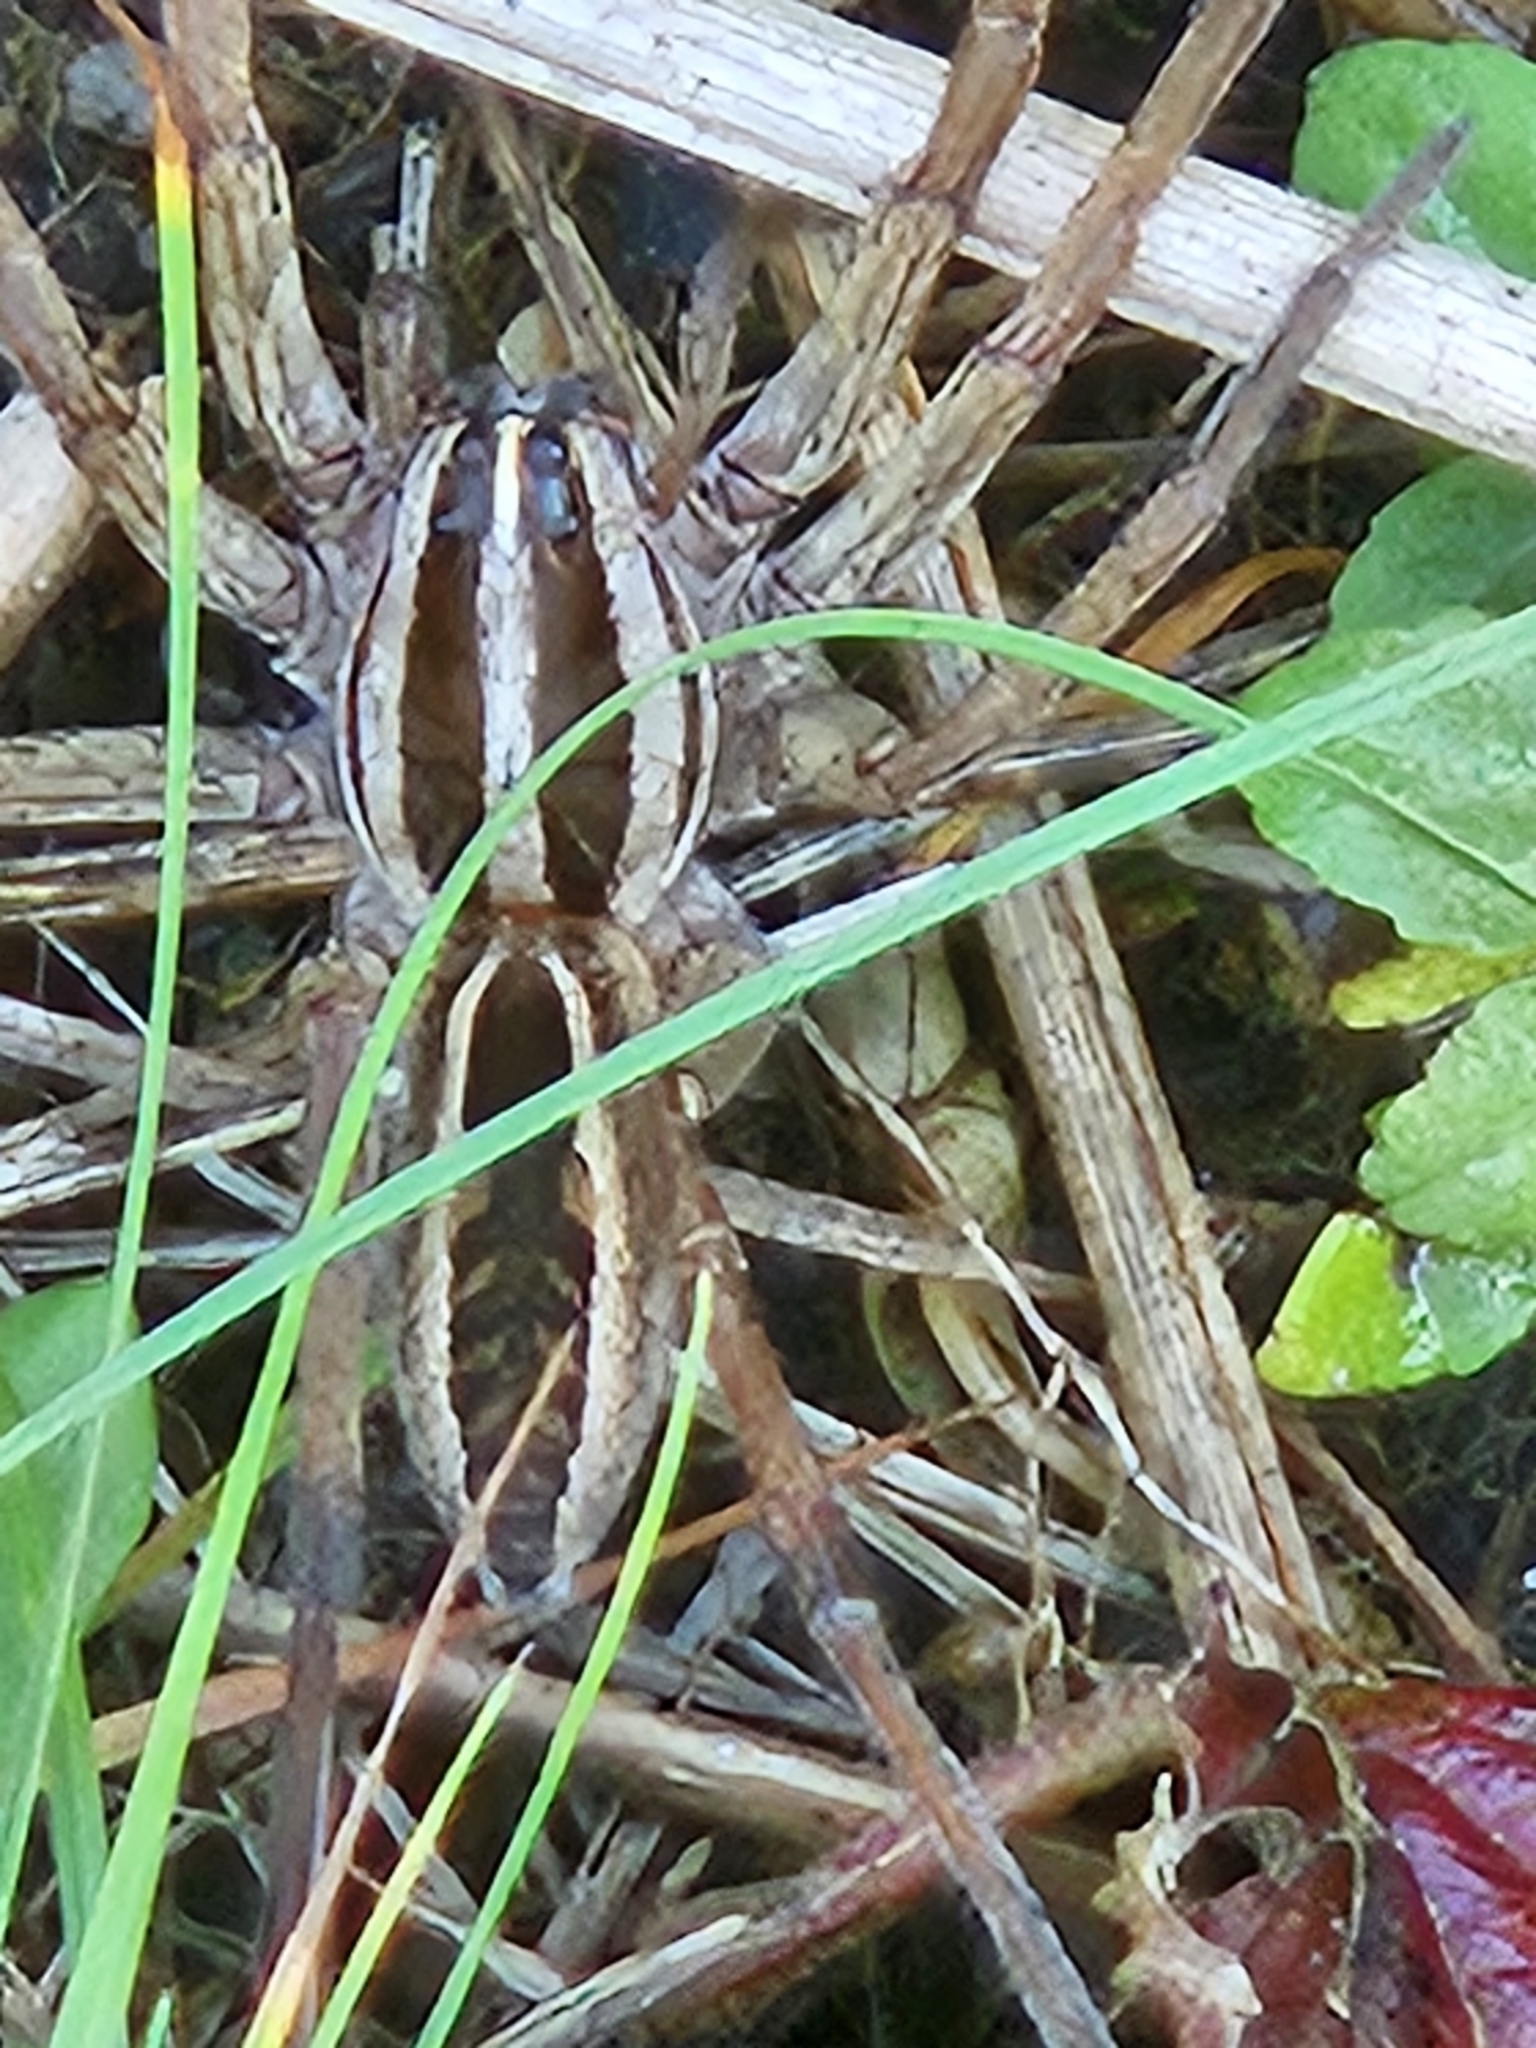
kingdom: Animalia
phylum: Arthropoda
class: Arachnida
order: Araneae
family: Lycosidae
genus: Rabidosa
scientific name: Rabidosa rabida
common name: Rabid wolf spider
